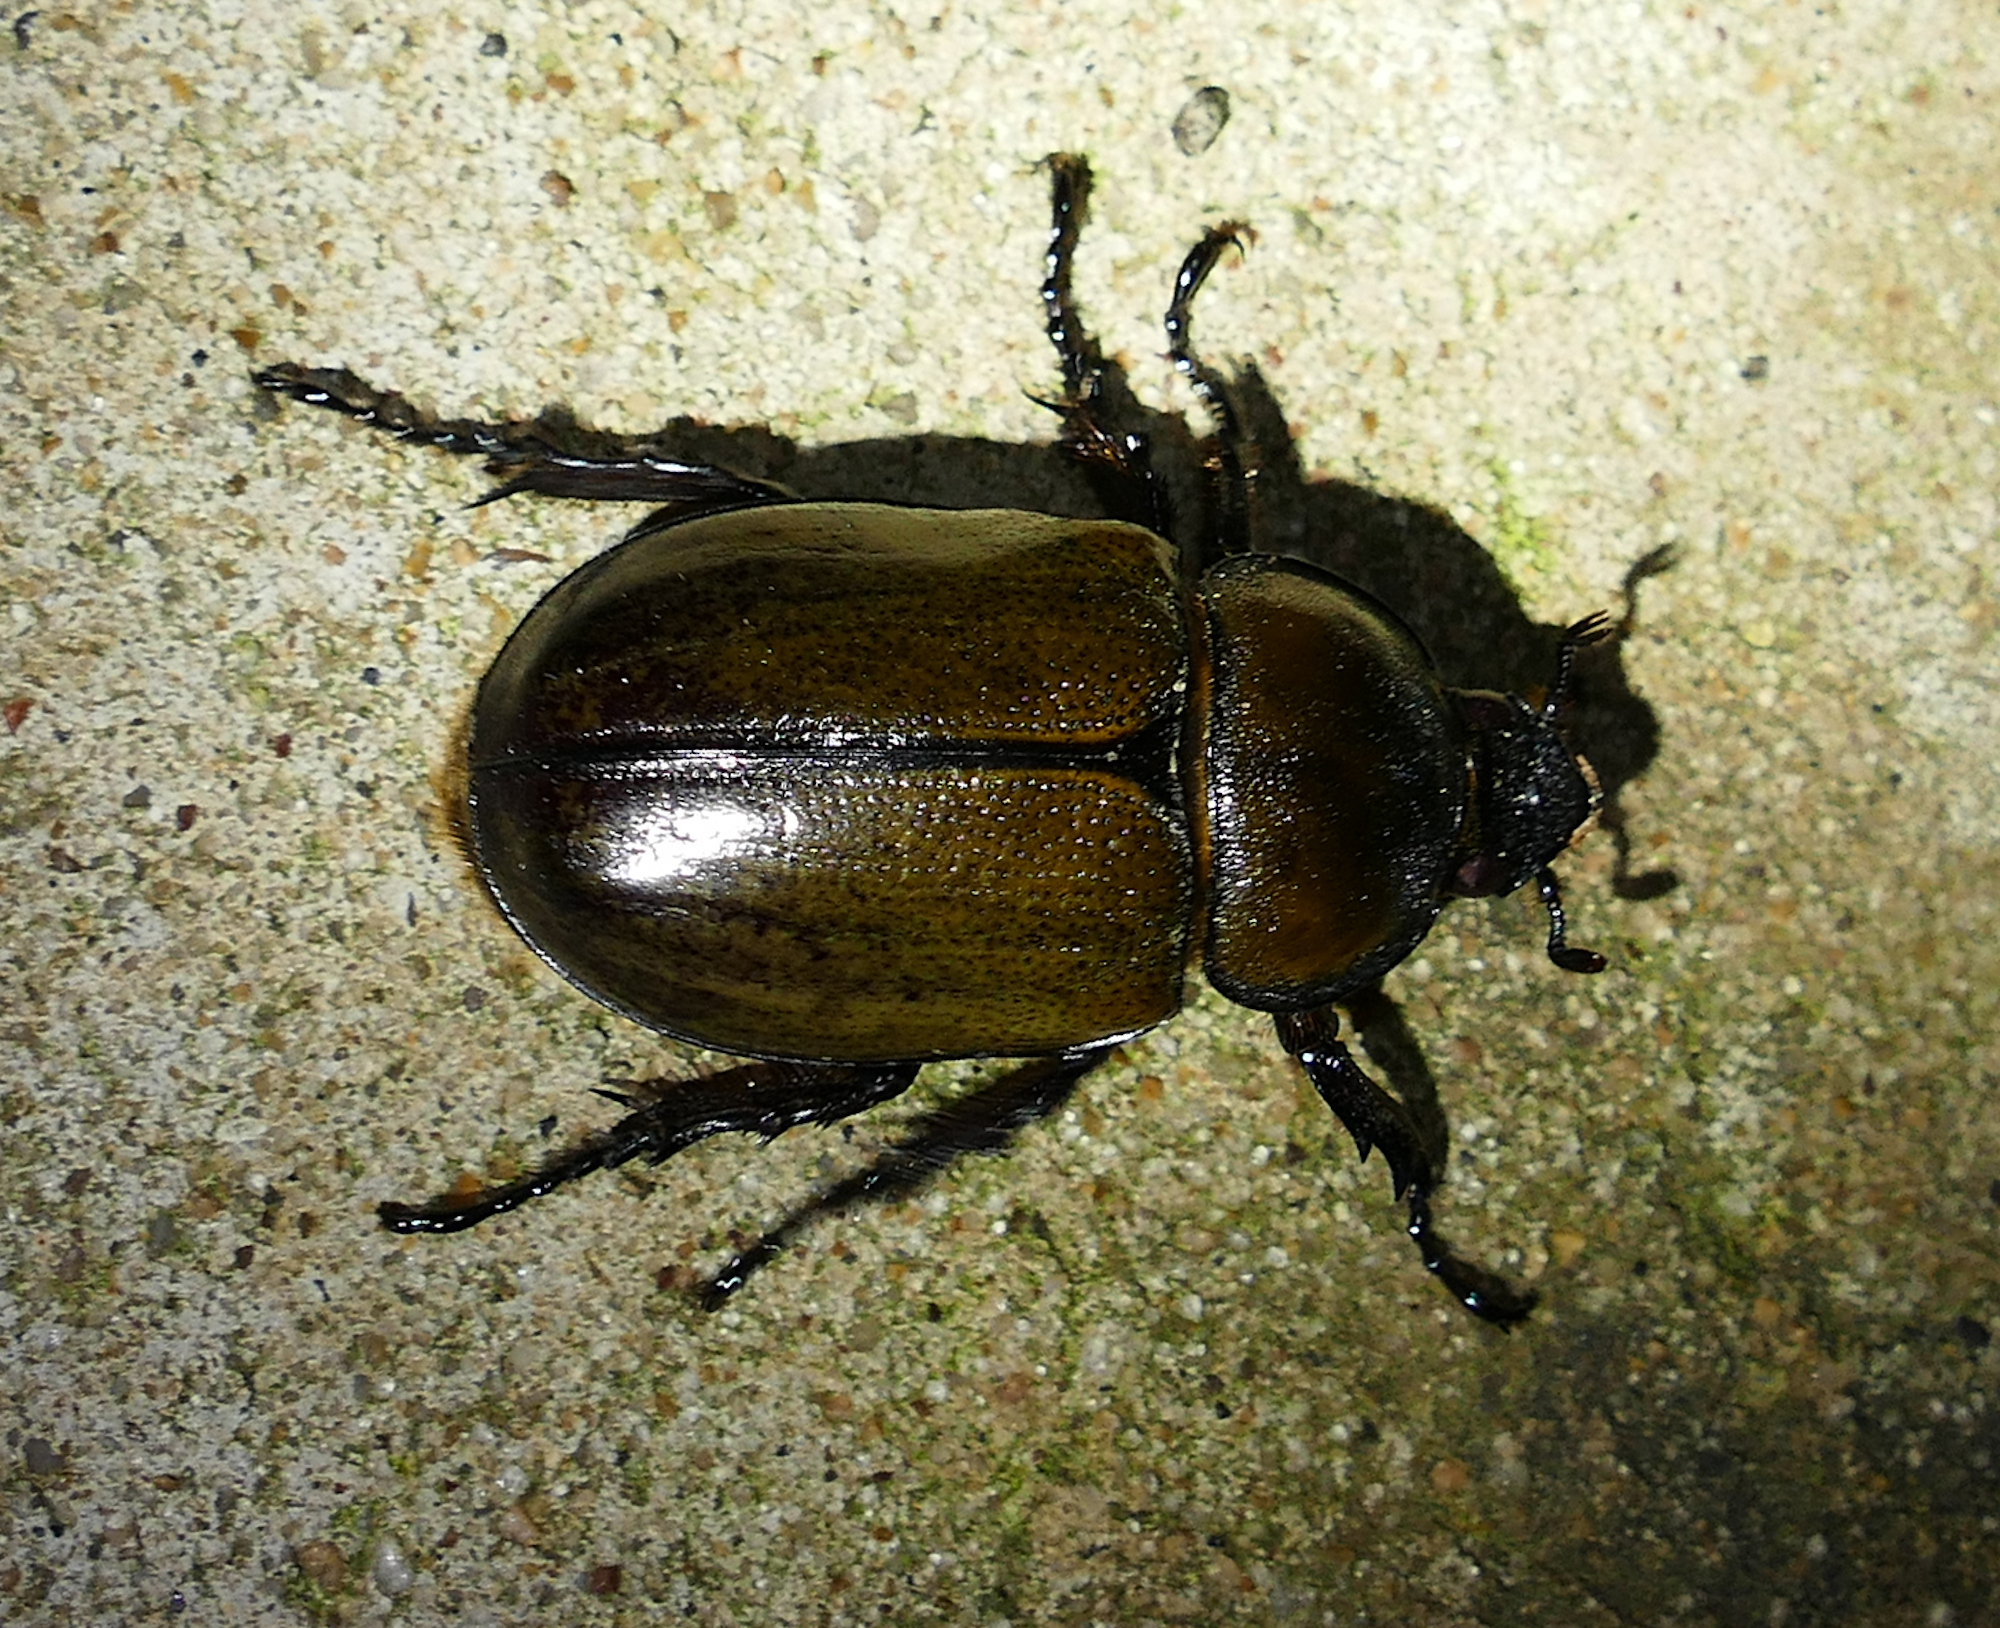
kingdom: Animalia
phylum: Arthropoda
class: Insecta
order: Coleoptera
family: Scarabaeidae
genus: Dynastes
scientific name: Dynastes tityus
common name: Eastern hercules beetle
